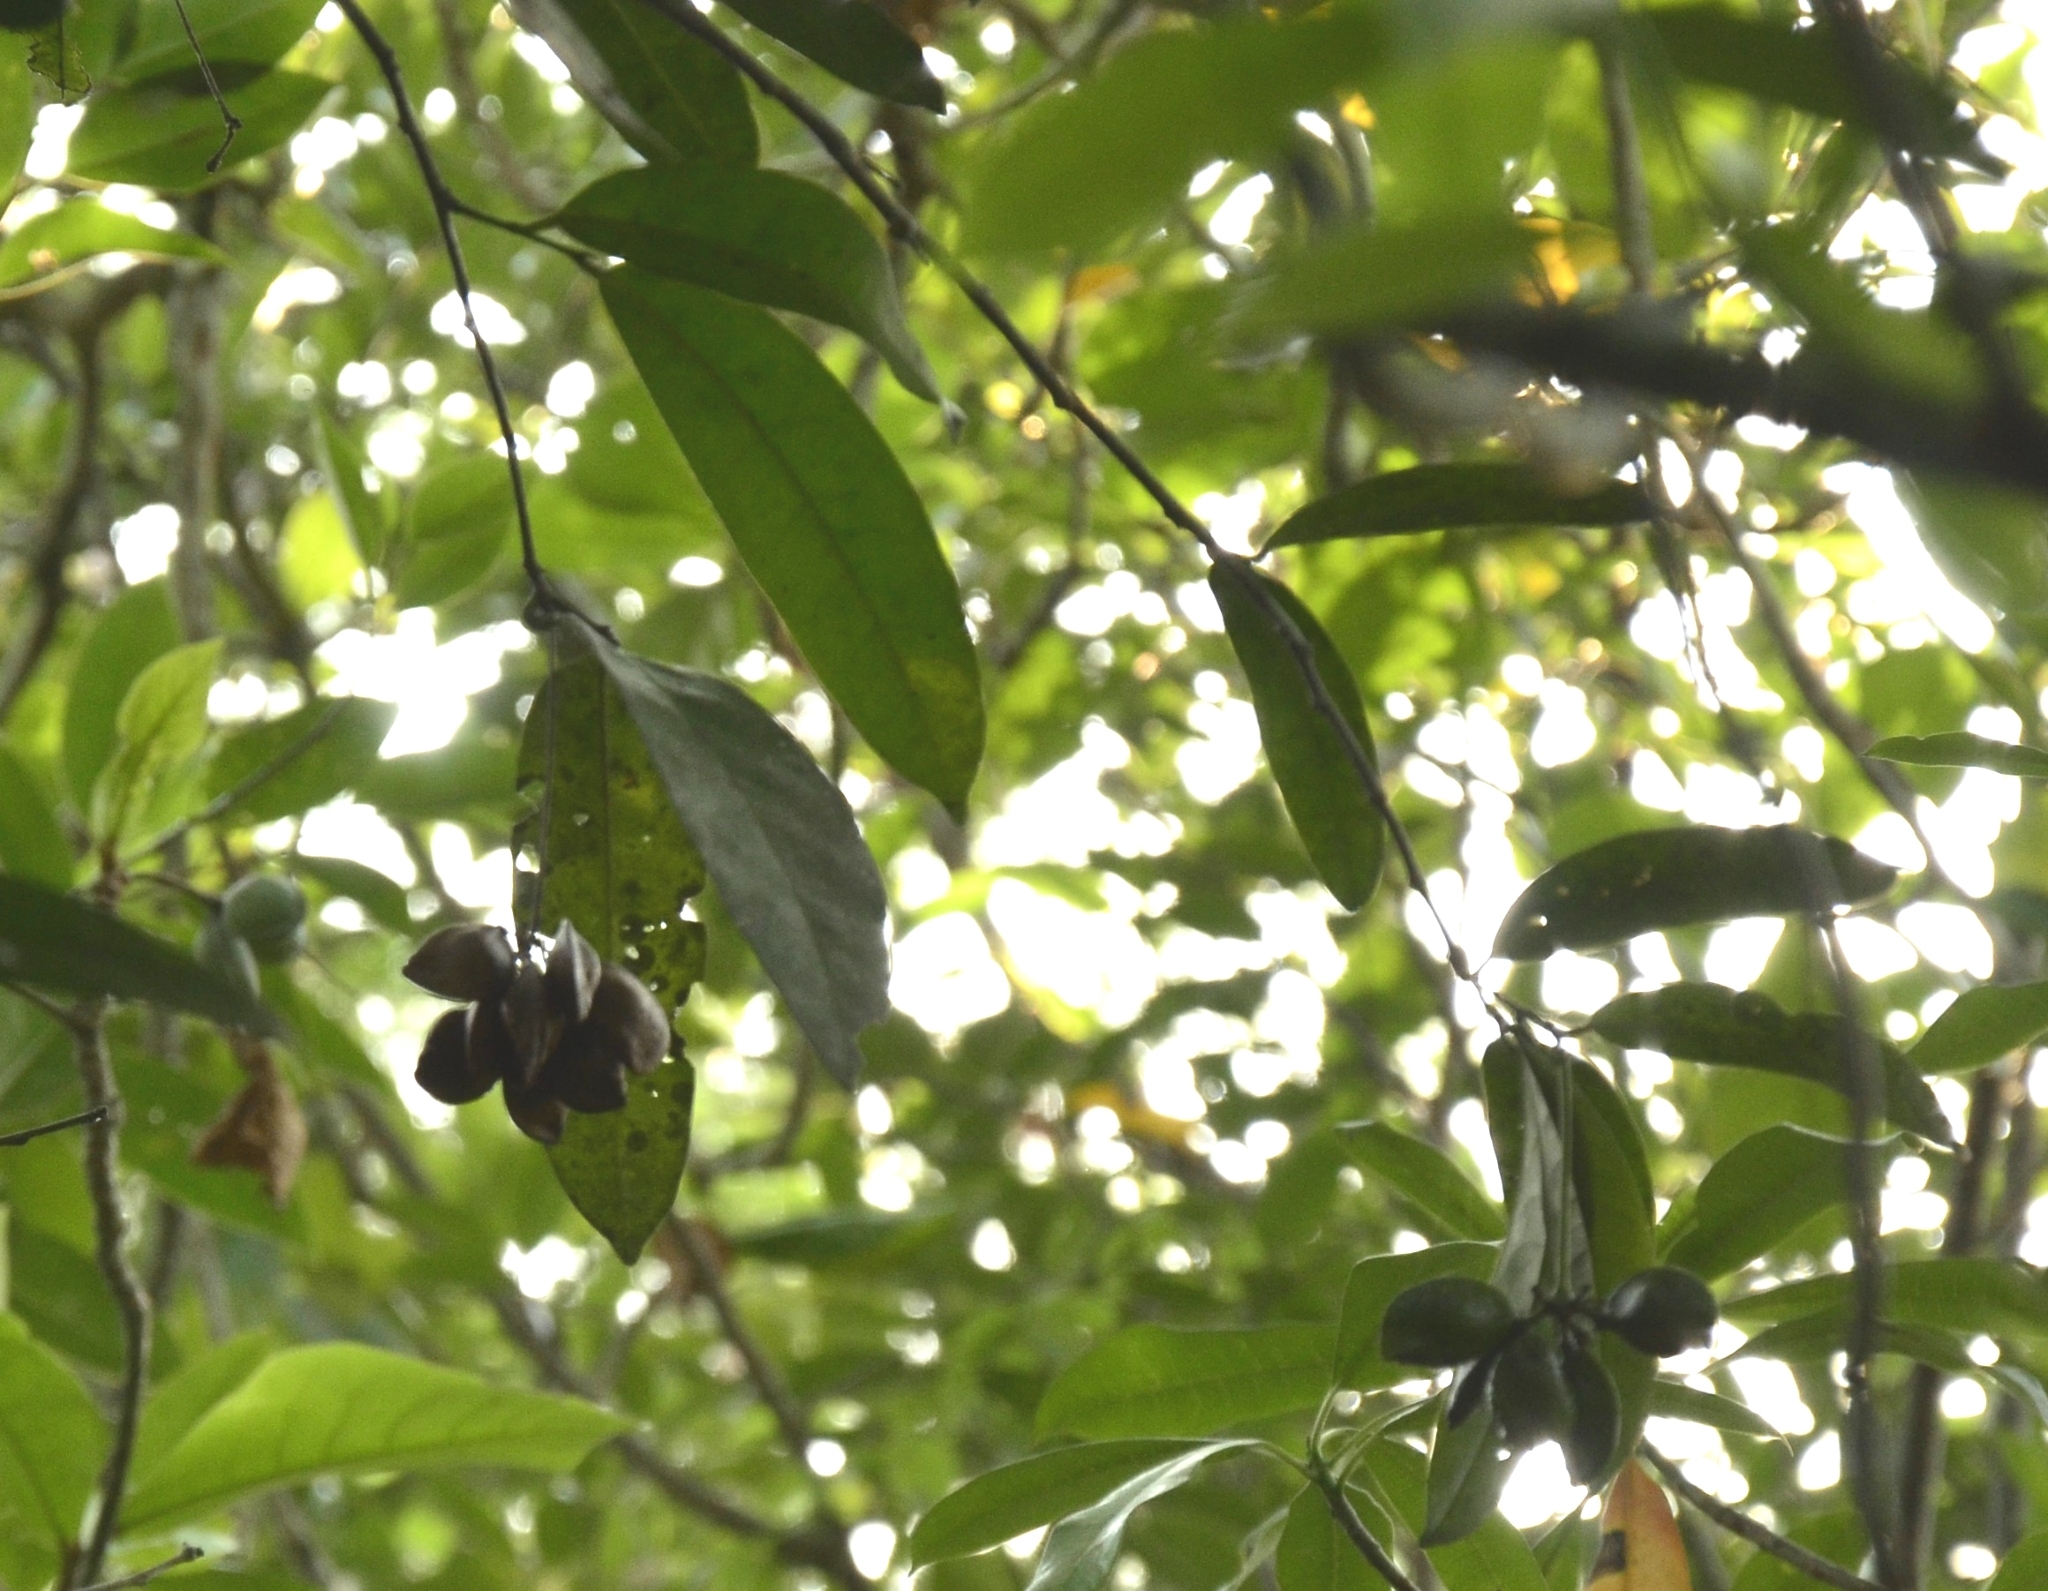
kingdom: Plantae
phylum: Tracheophyta
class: Magnoliopsida
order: Sapindales
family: Simaroubaceae
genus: Samadera
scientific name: Samadera indica
